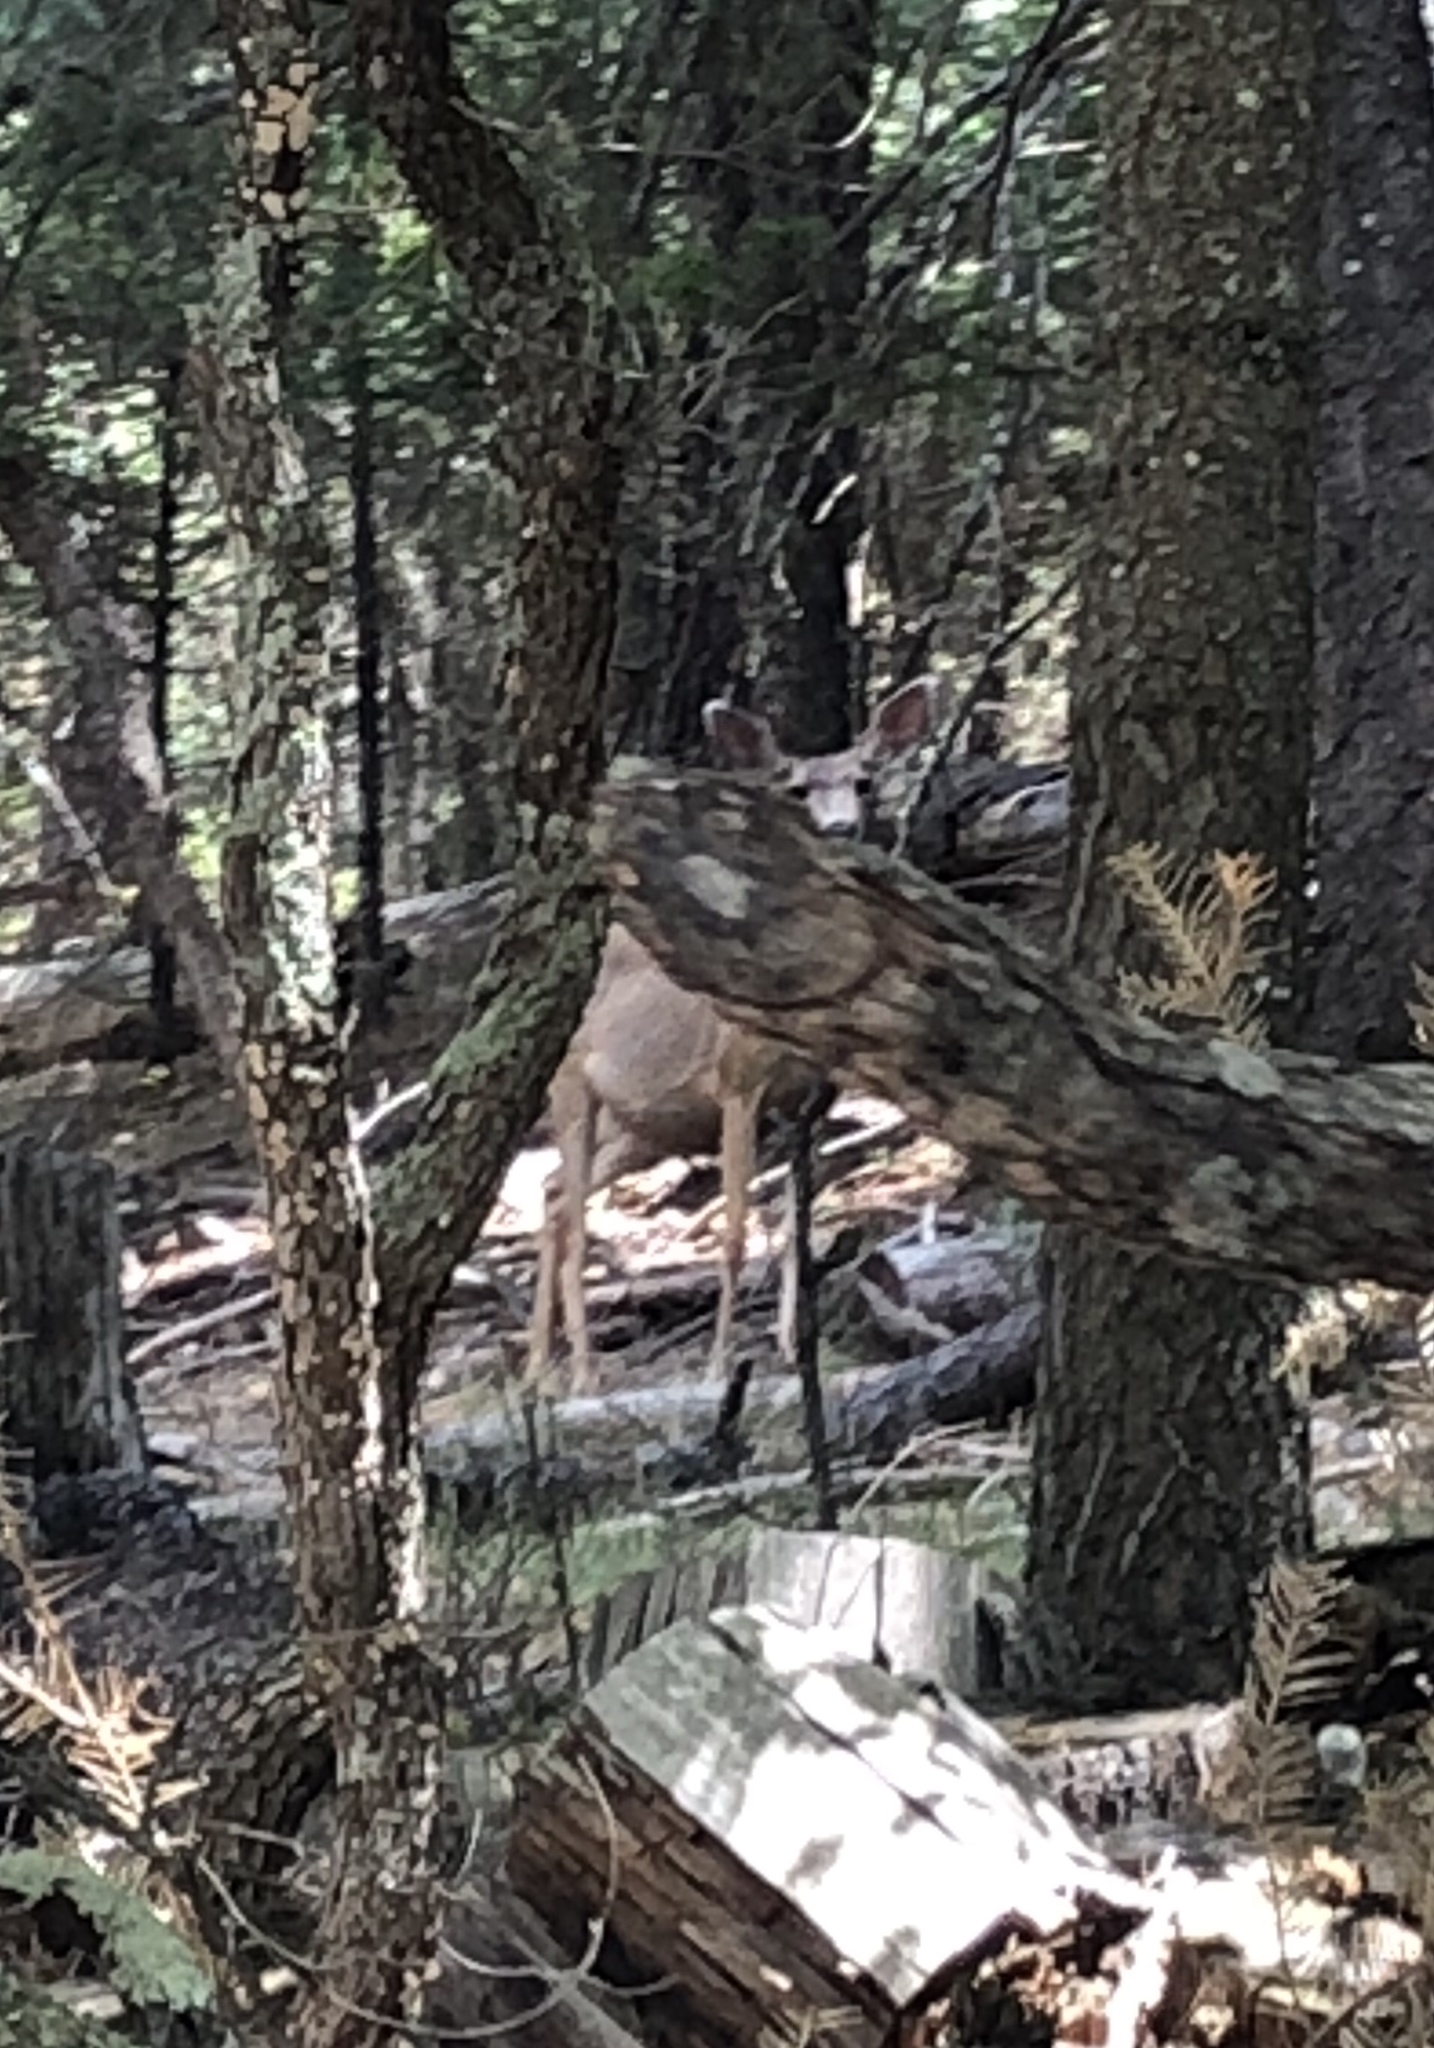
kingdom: Animalia
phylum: Chordata
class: Mammalia
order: Artiodactyla
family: Cervidae
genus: Odocoileus
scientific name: Odocoileus hemionus
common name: Mule deer
